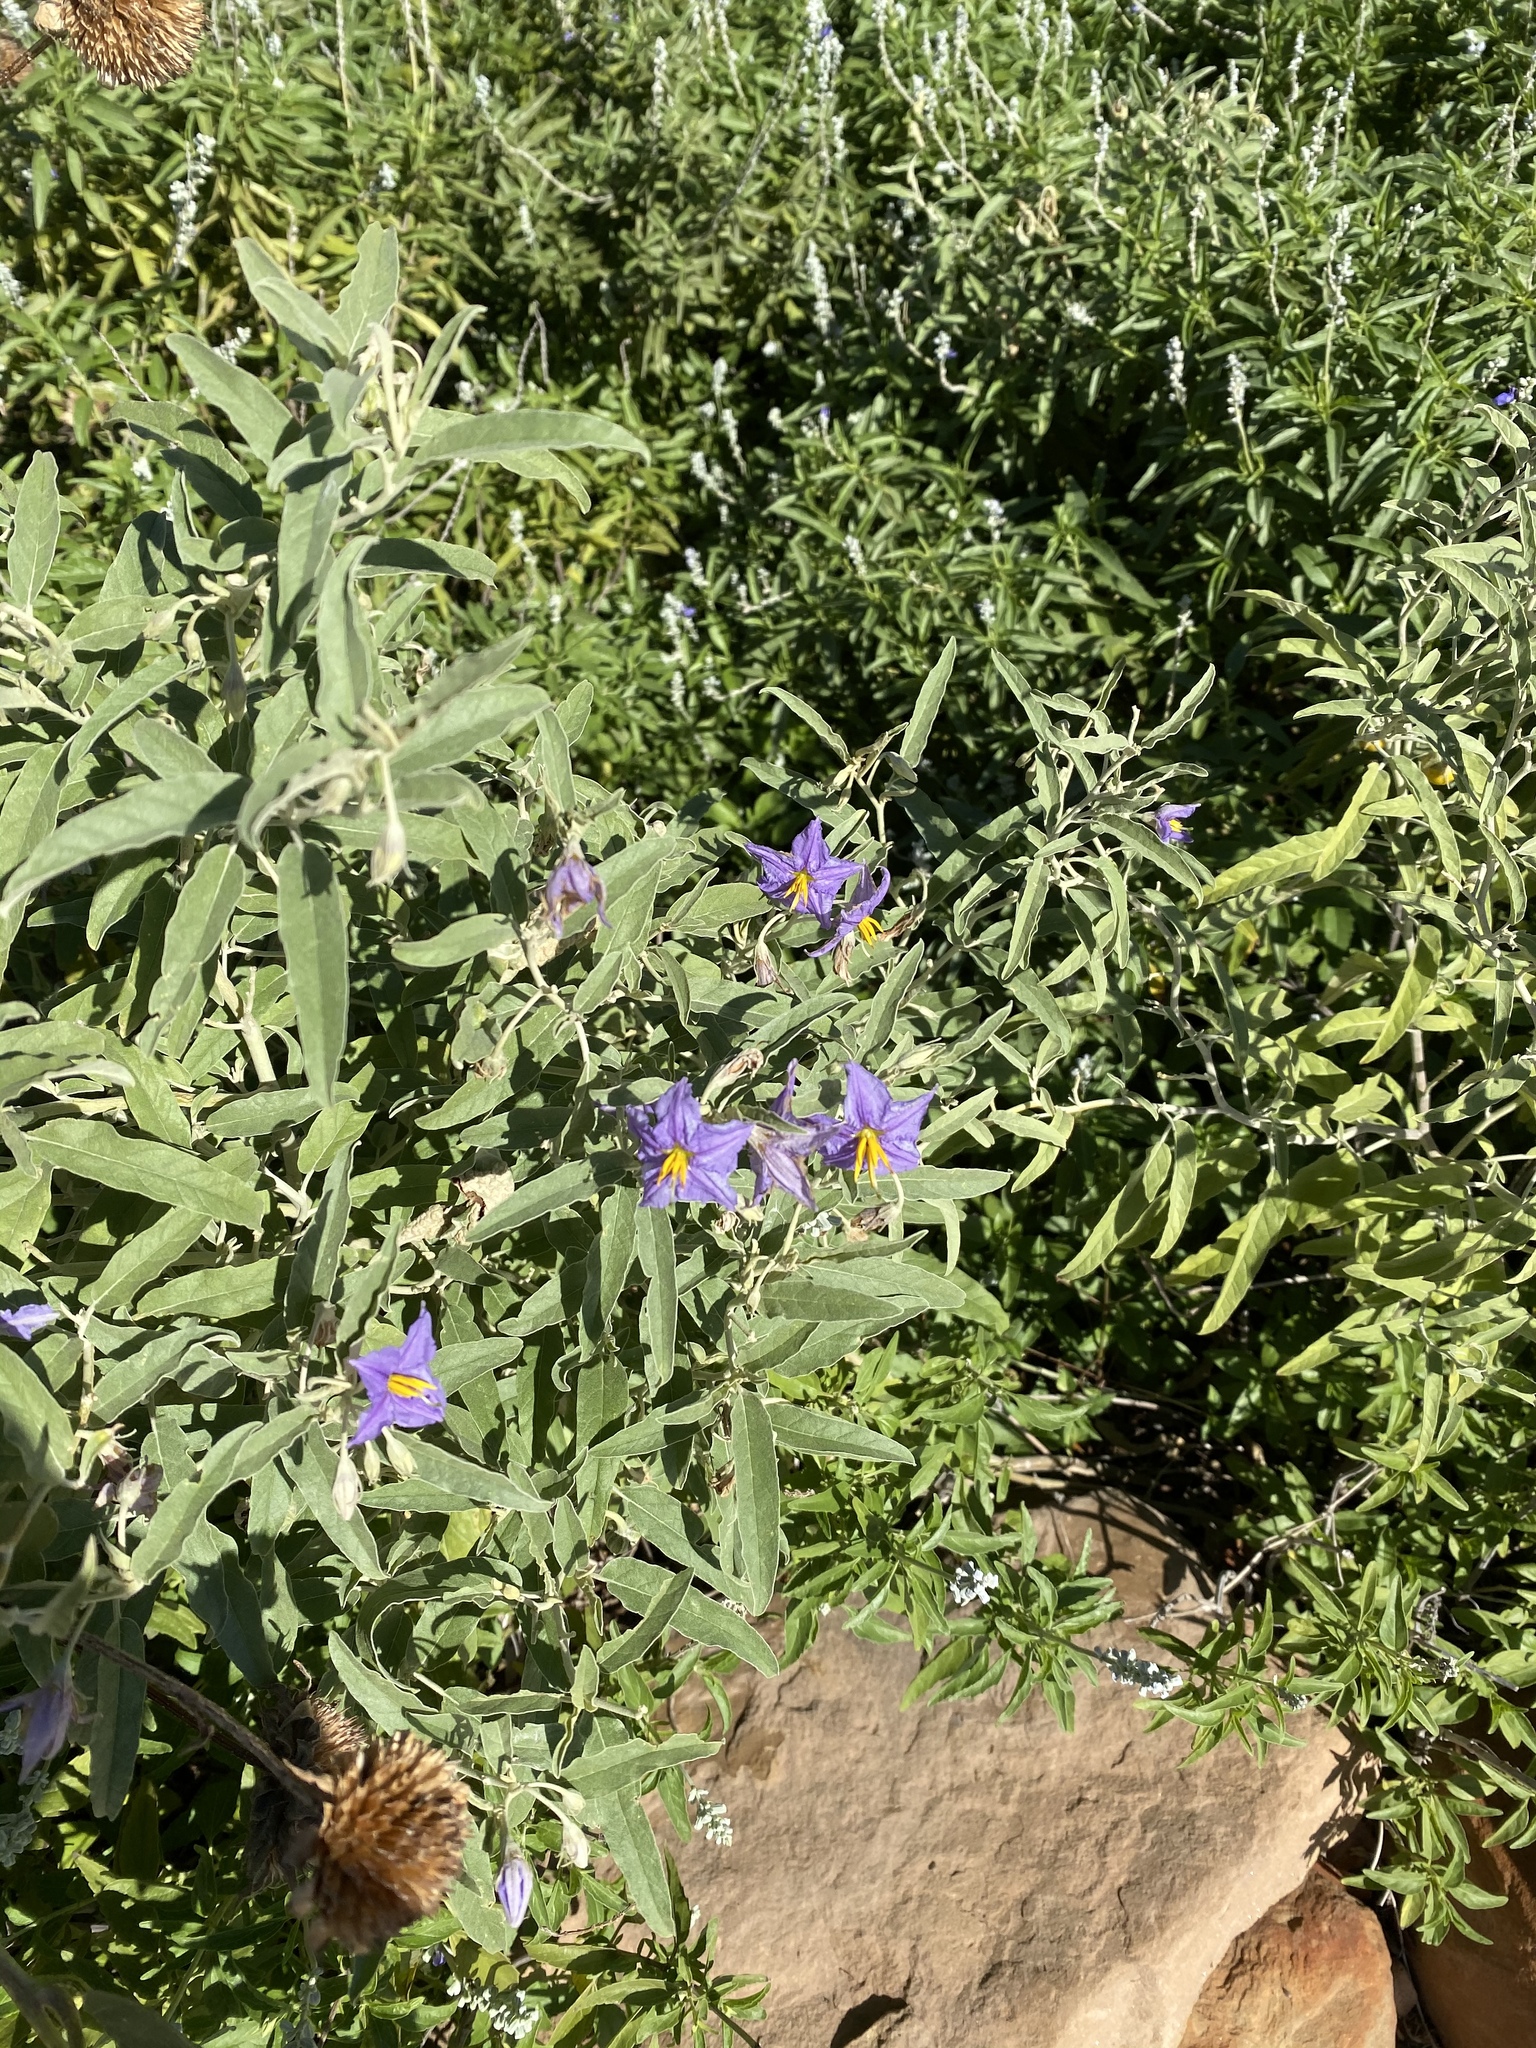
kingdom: Plantae
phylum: Tracheophyta
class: Magnoliopsida
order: Solanales
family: Solanaceae
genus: Solanum
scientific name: Solanum elaeagnifolium
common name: Silverleaf nightshade
